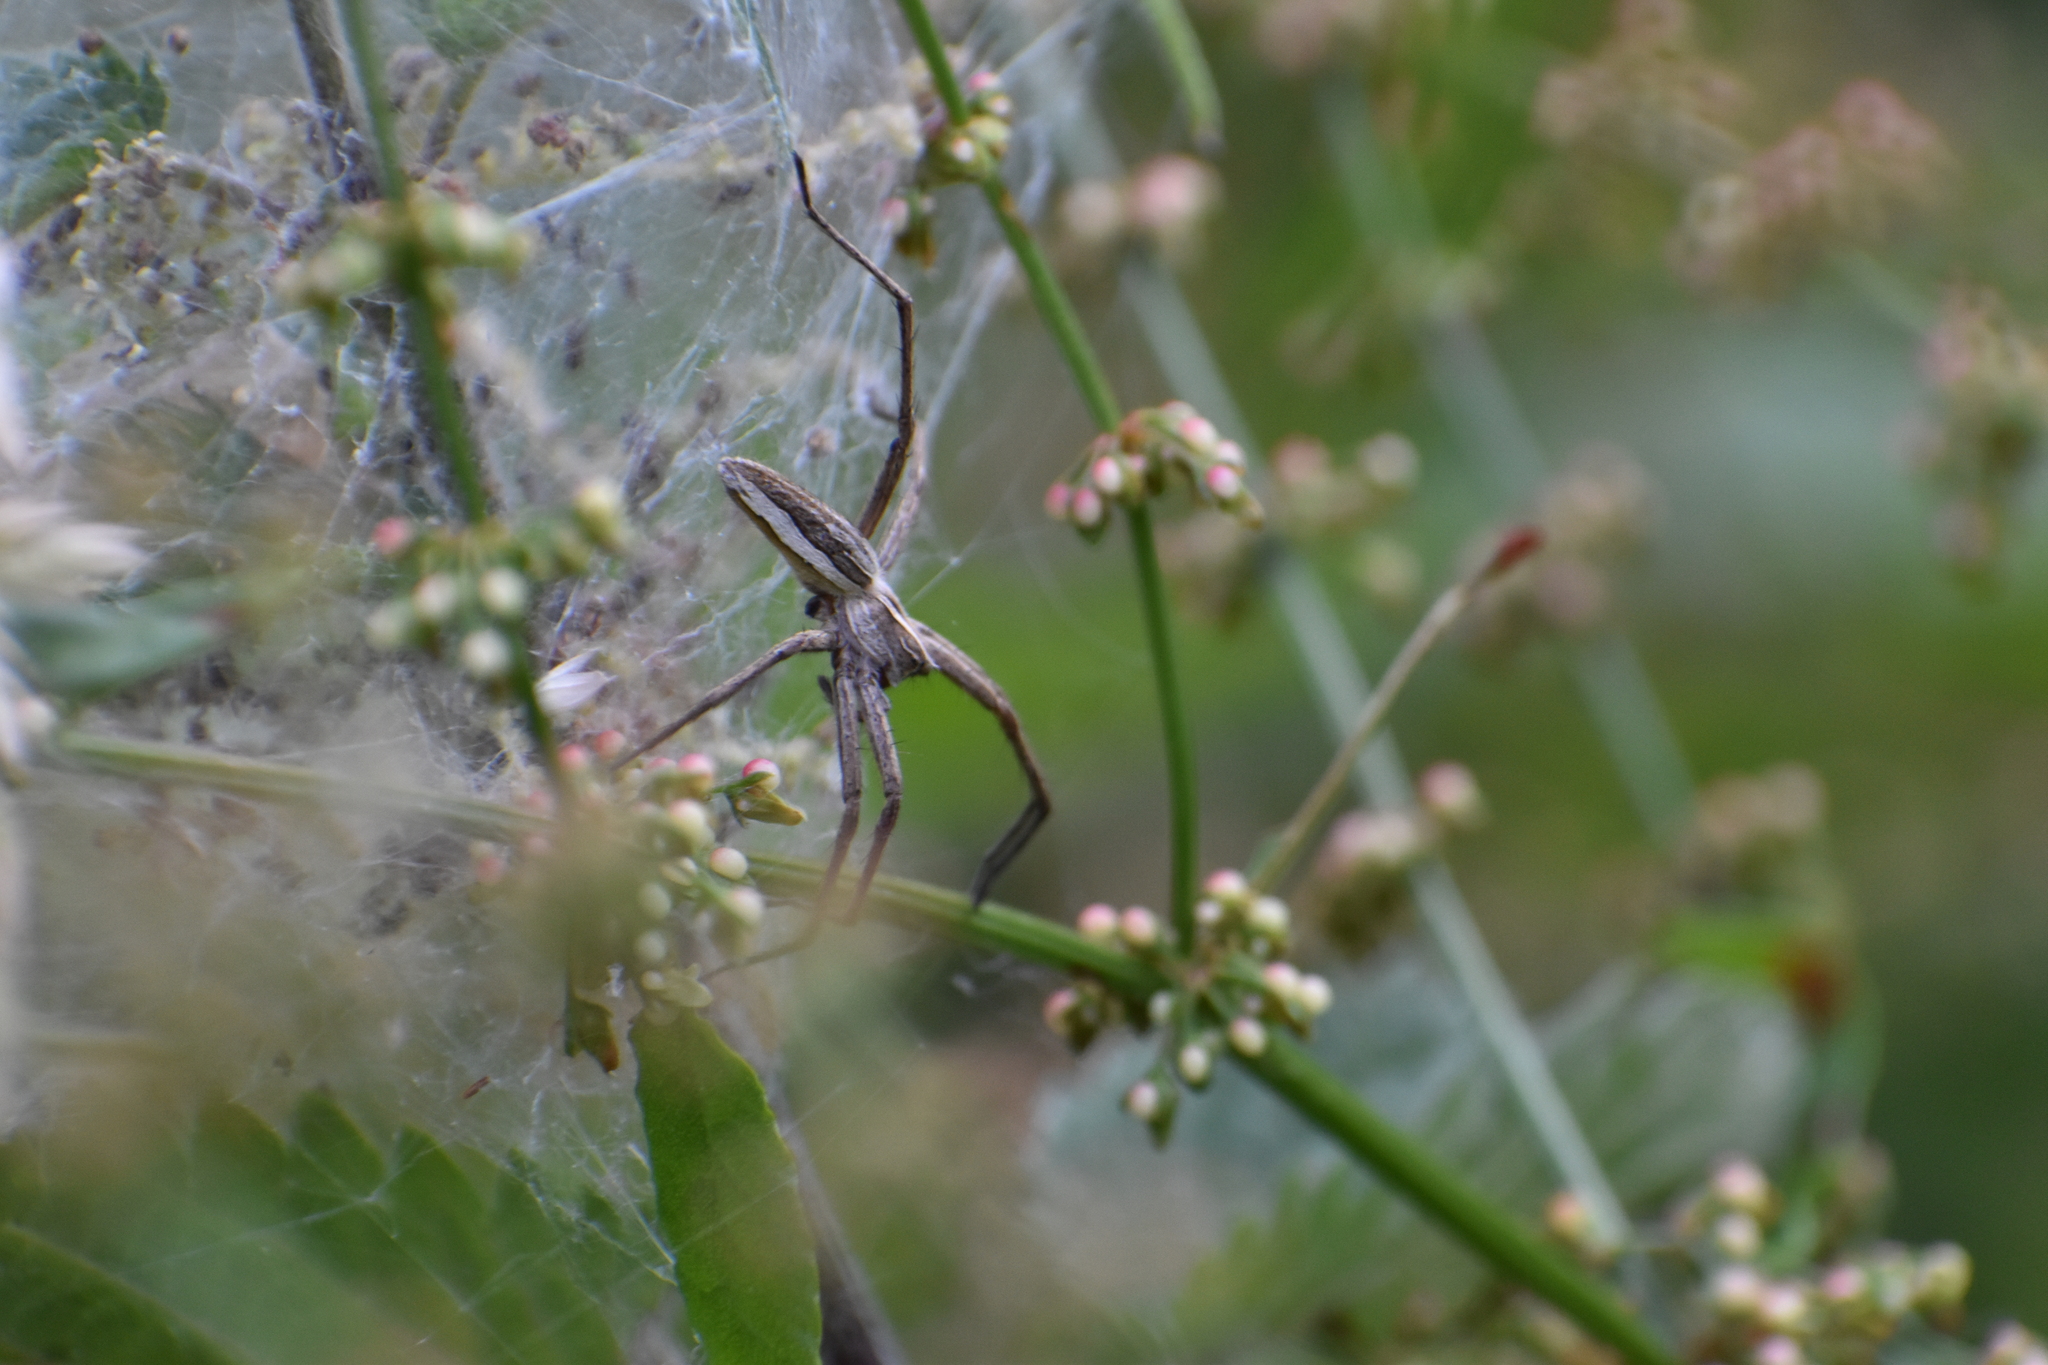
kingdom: Animalia
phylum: Arthropoda
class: Arachnida
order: Araneae
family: Pisauridae
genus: Pisaura
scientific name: Pisaura mirabilis
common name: Tent spider
